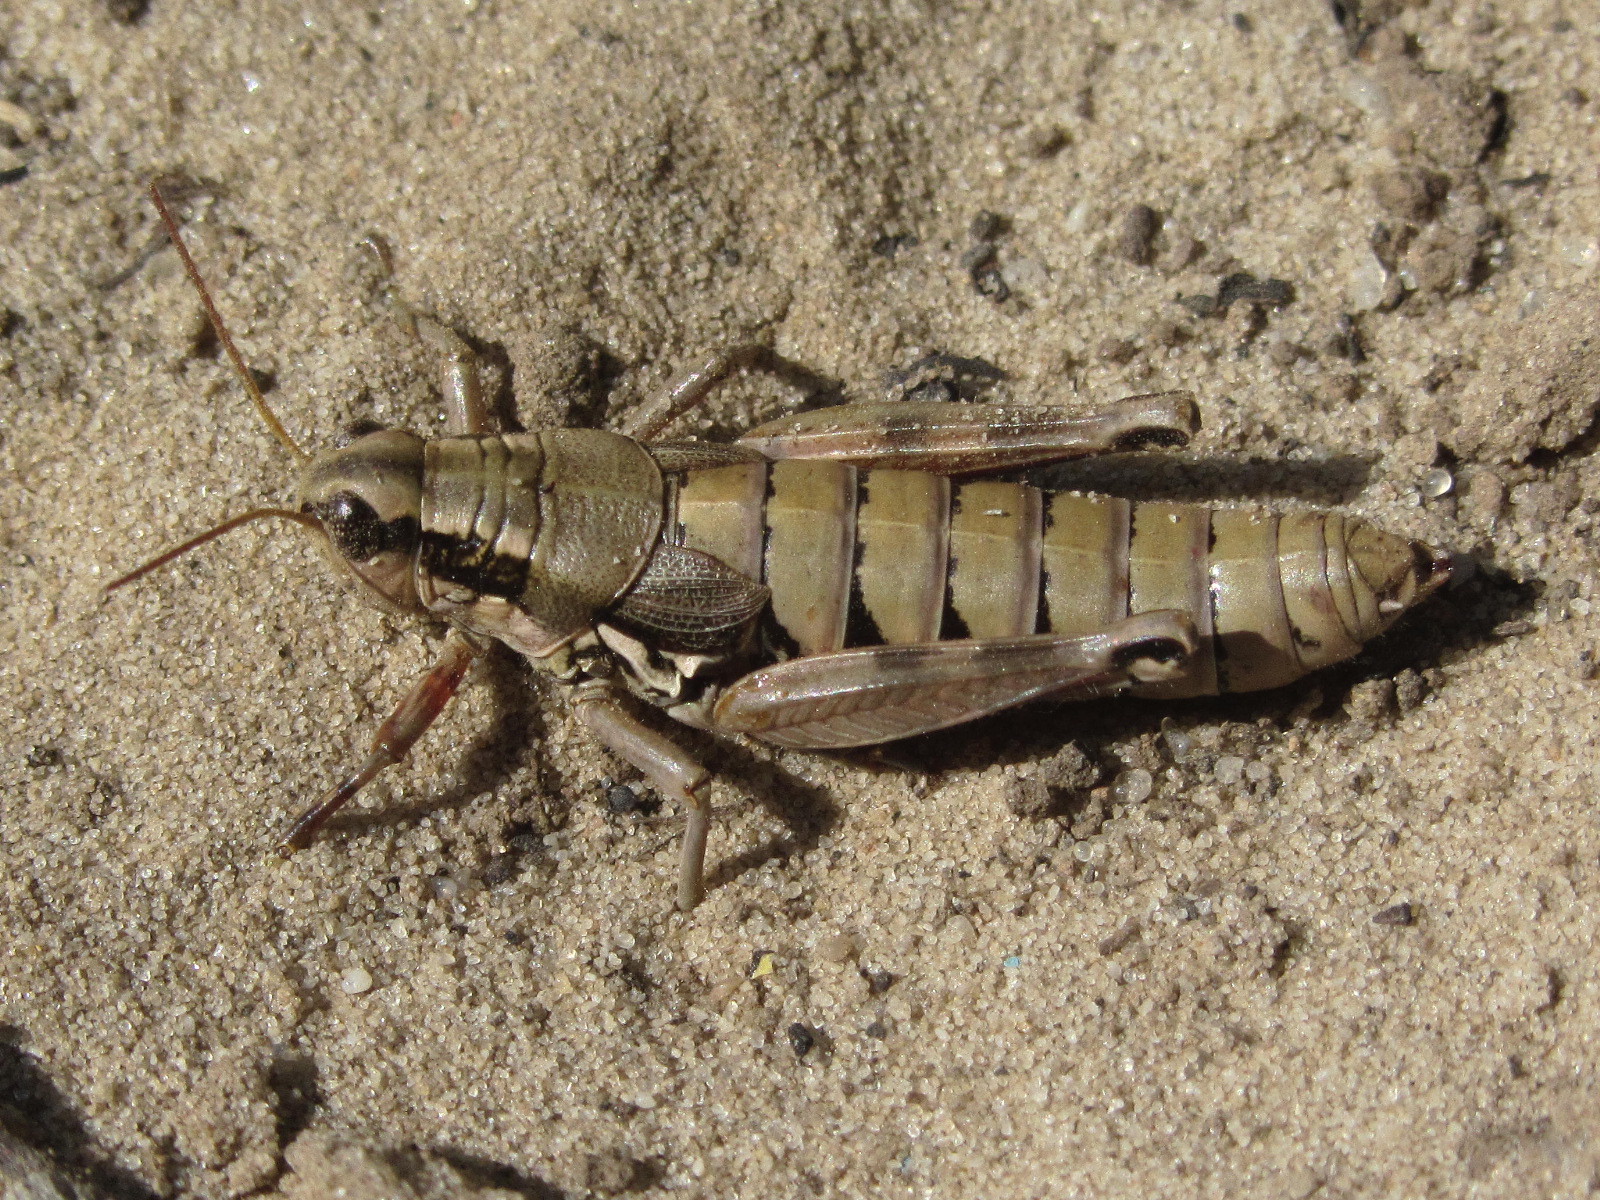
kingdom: Animalia
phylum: Arthropoda
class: Insecta
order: Orthoptera
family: Acrididae
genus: Podisma
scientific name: Podisma pedestris
